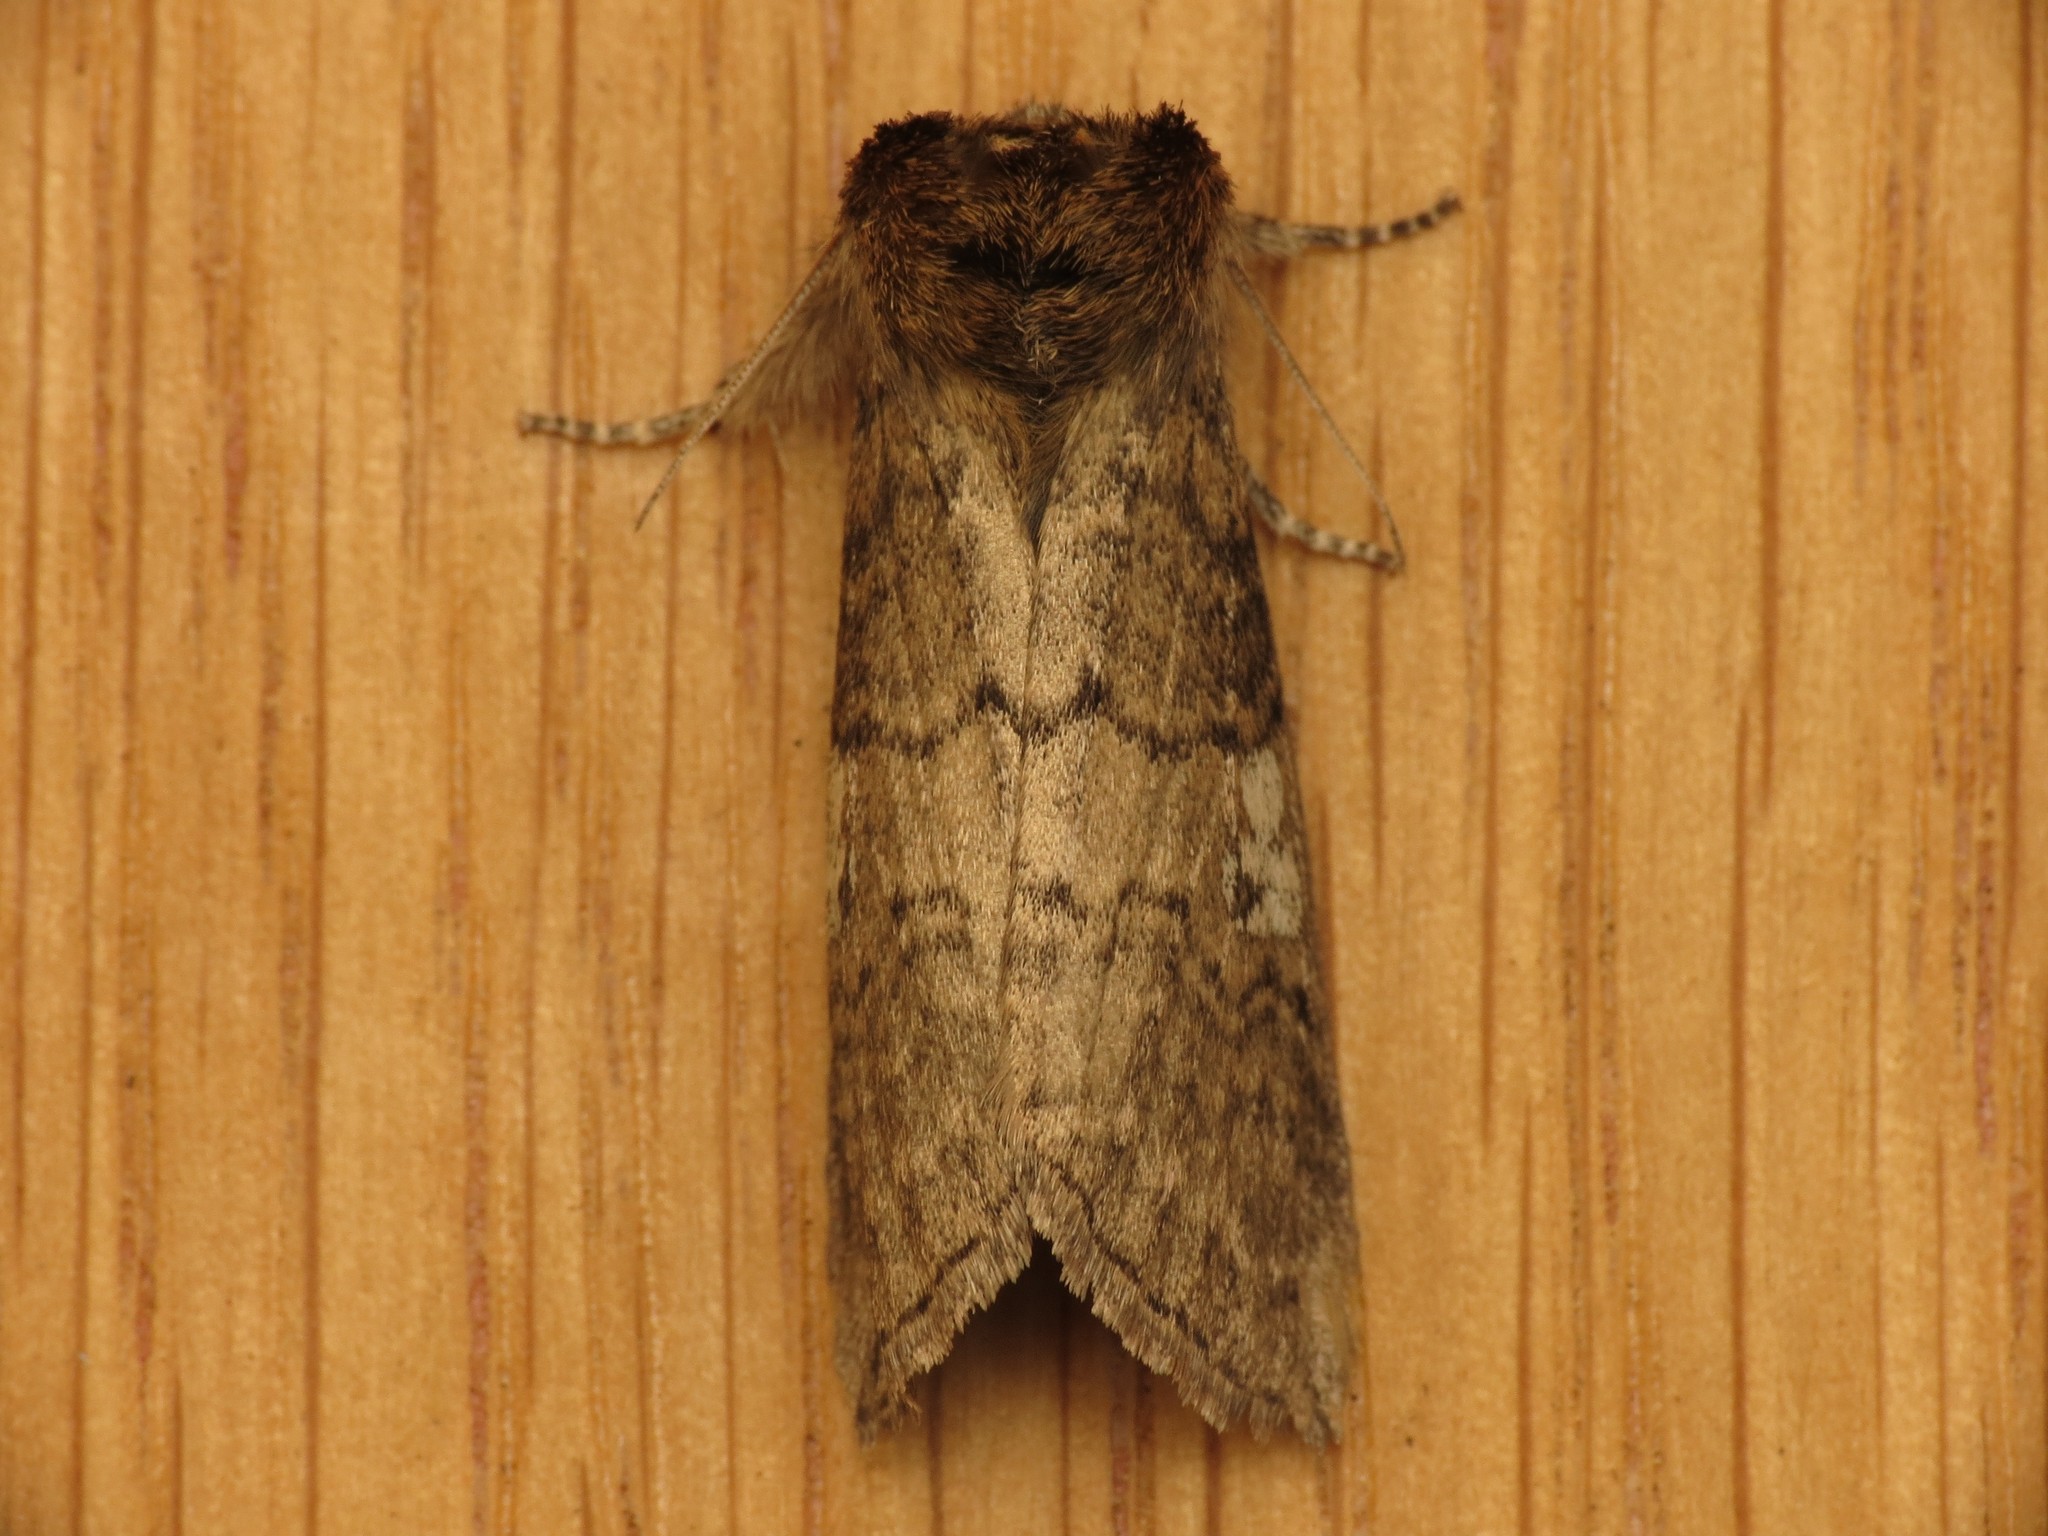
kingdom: Animalia
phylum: Arthropoda
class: Insecta
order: Lepidoptera
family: Drepanidae
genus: Tethea
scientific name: Tethea or
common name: Poplar lutestring
